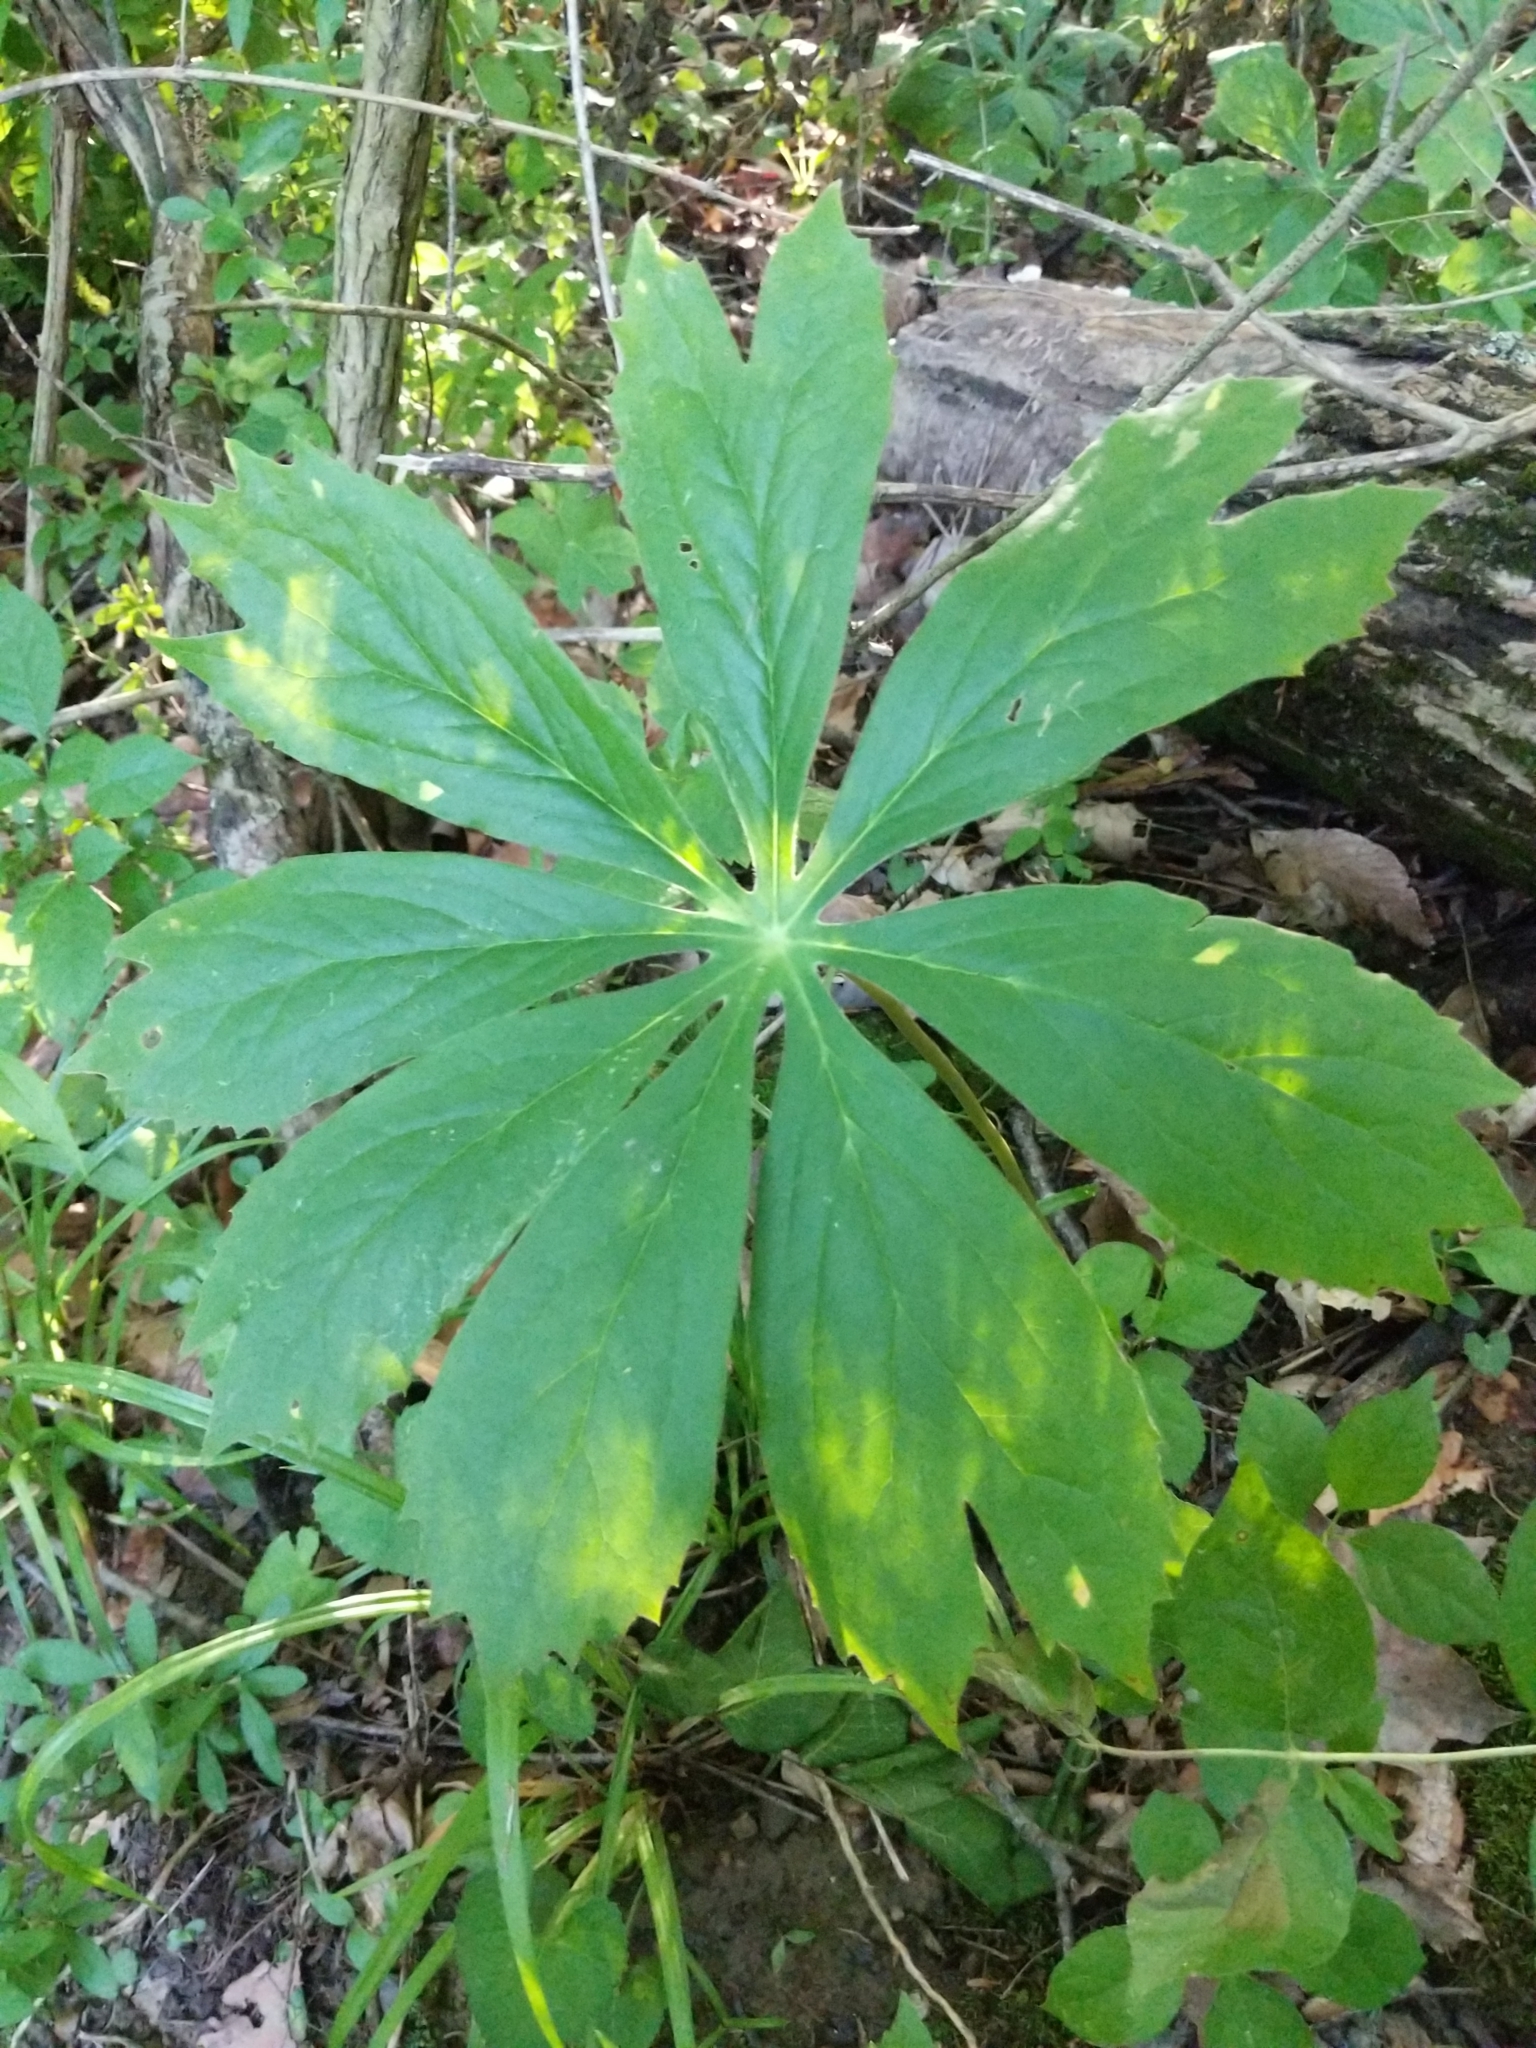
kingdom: Plantae
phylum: Tracheophyta
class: Magnoliopsida
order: Ranunculales
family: Berberidaceae
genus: Podophyllum
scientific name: Podophyllum peltatum
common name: Wild mandrake
